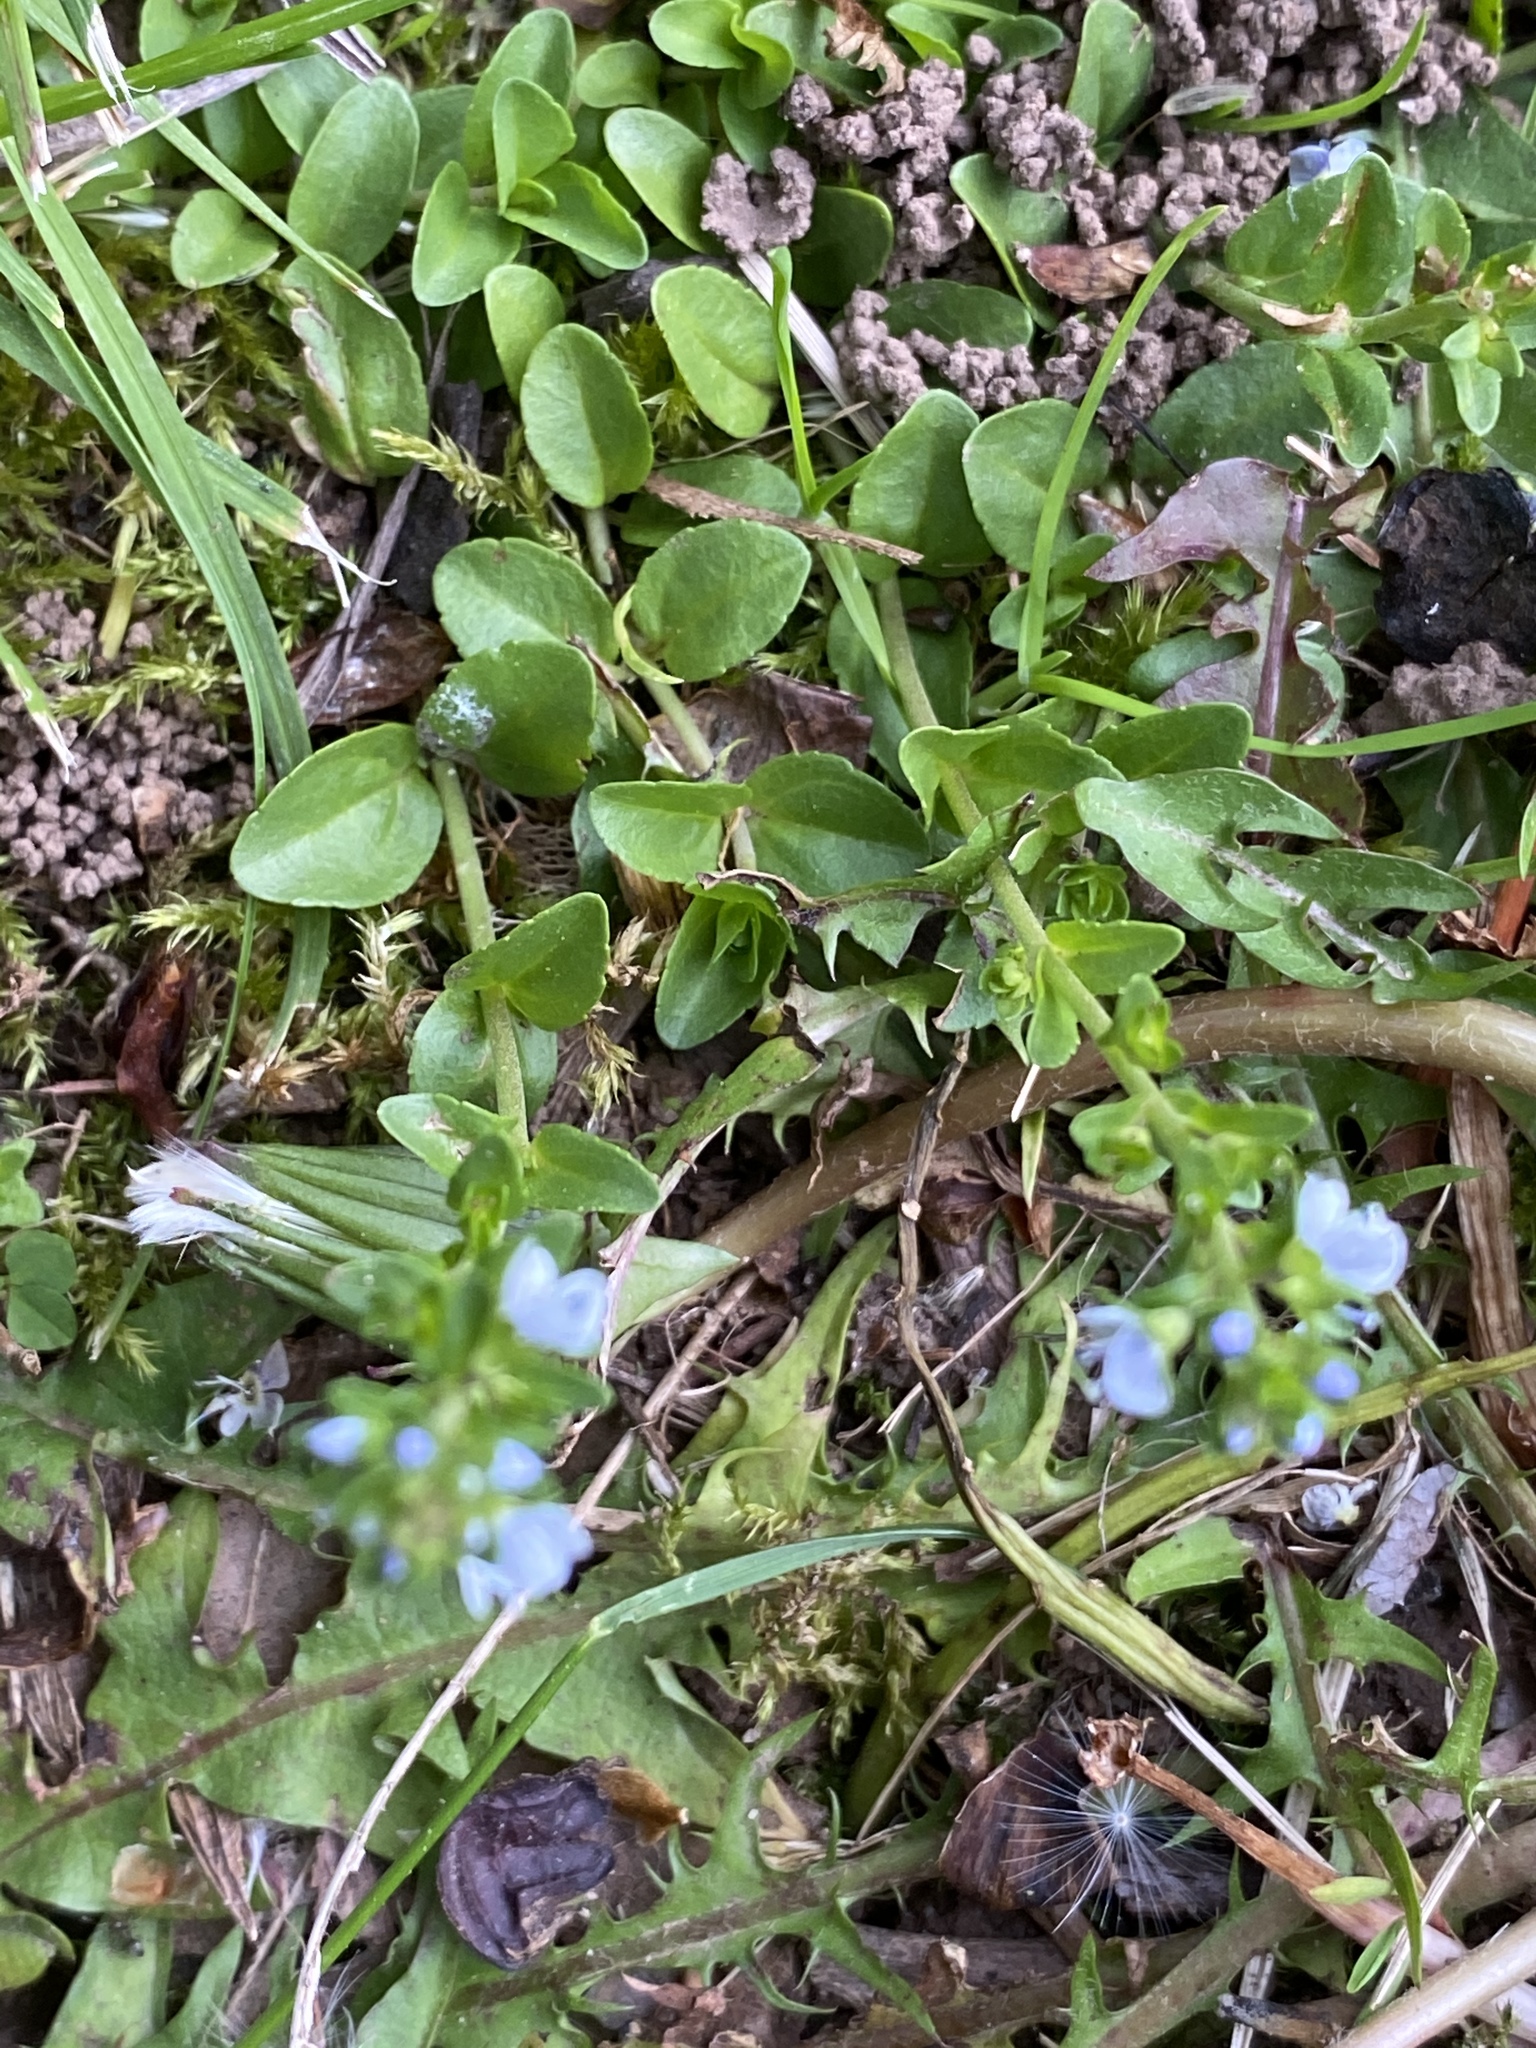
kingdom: Plantae
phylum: Tracheophyta
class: Magnoliopsida
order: Lamiales
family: Plantaginaceae
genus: Veronica
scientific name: Veronica serpyllifolia
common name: Thyme-leaved speedwell
